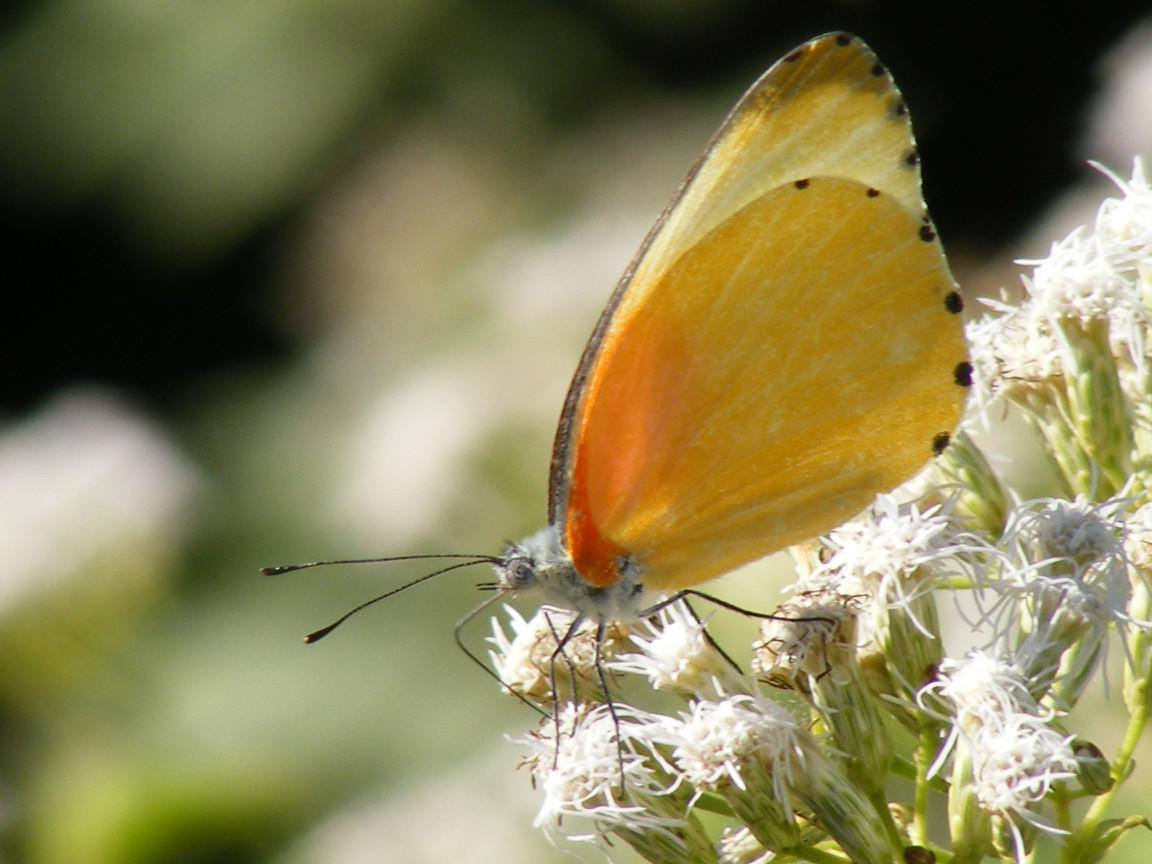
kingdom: Animalia
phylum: Arthropoda
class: Insecta
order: Lepidoptera
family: Pieridae
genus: Mylothris
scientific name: Mylothris agathina
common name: Eastern dotted border
